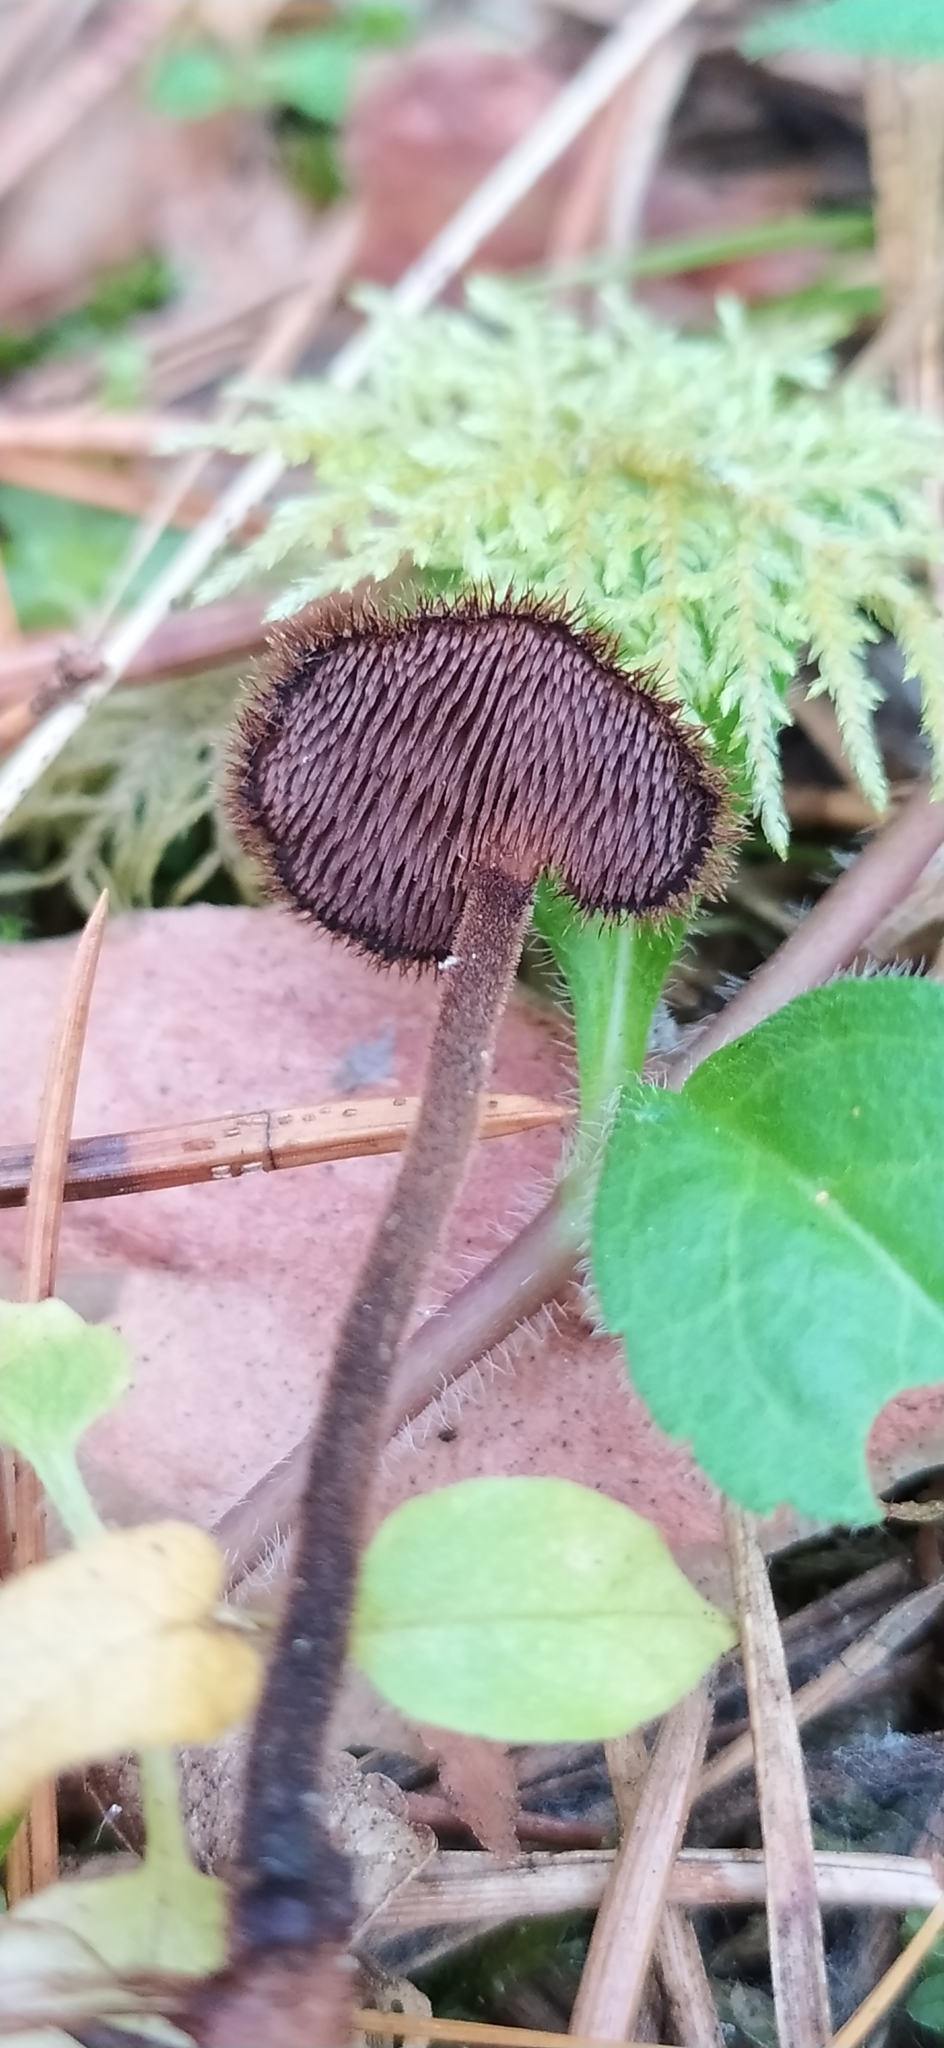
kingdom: Fungi
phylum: Basidiomycota
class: Agaricomycetes
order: Russulales
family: Auriscalpiaceae
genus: Auriscalpium
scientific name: Auriscalpium vulgare
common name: Earpick fungus
